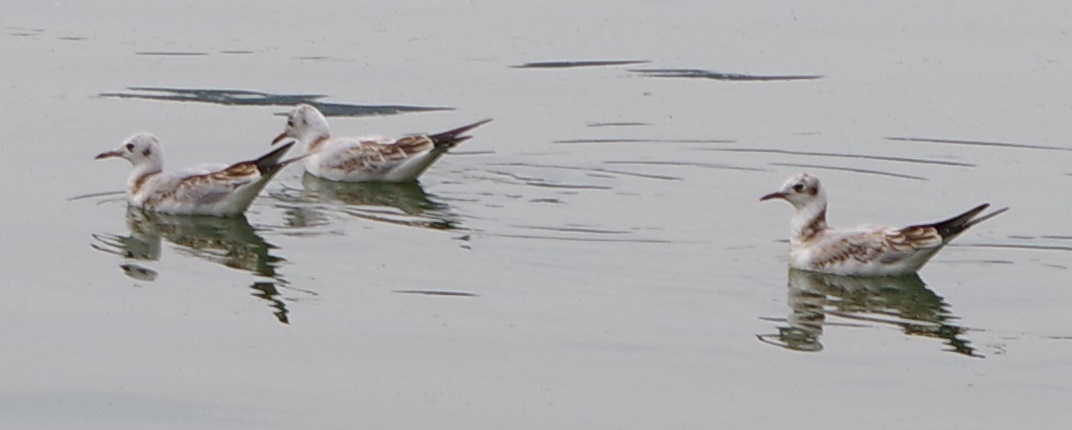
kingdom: Animalia
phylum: Chordata
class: Aves
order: Charadriiformes
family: Laridae
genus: Chroicocephalus
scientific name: Chroicocephalus ridibundus
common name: Black-headed gull
